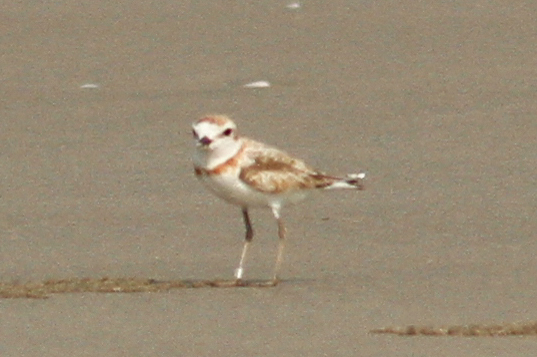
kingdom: Animalia
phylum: Chordata
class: Aves
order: Charadriiformes
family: Charadriidae
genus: Anarhynchus
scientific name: Anarhynchus
